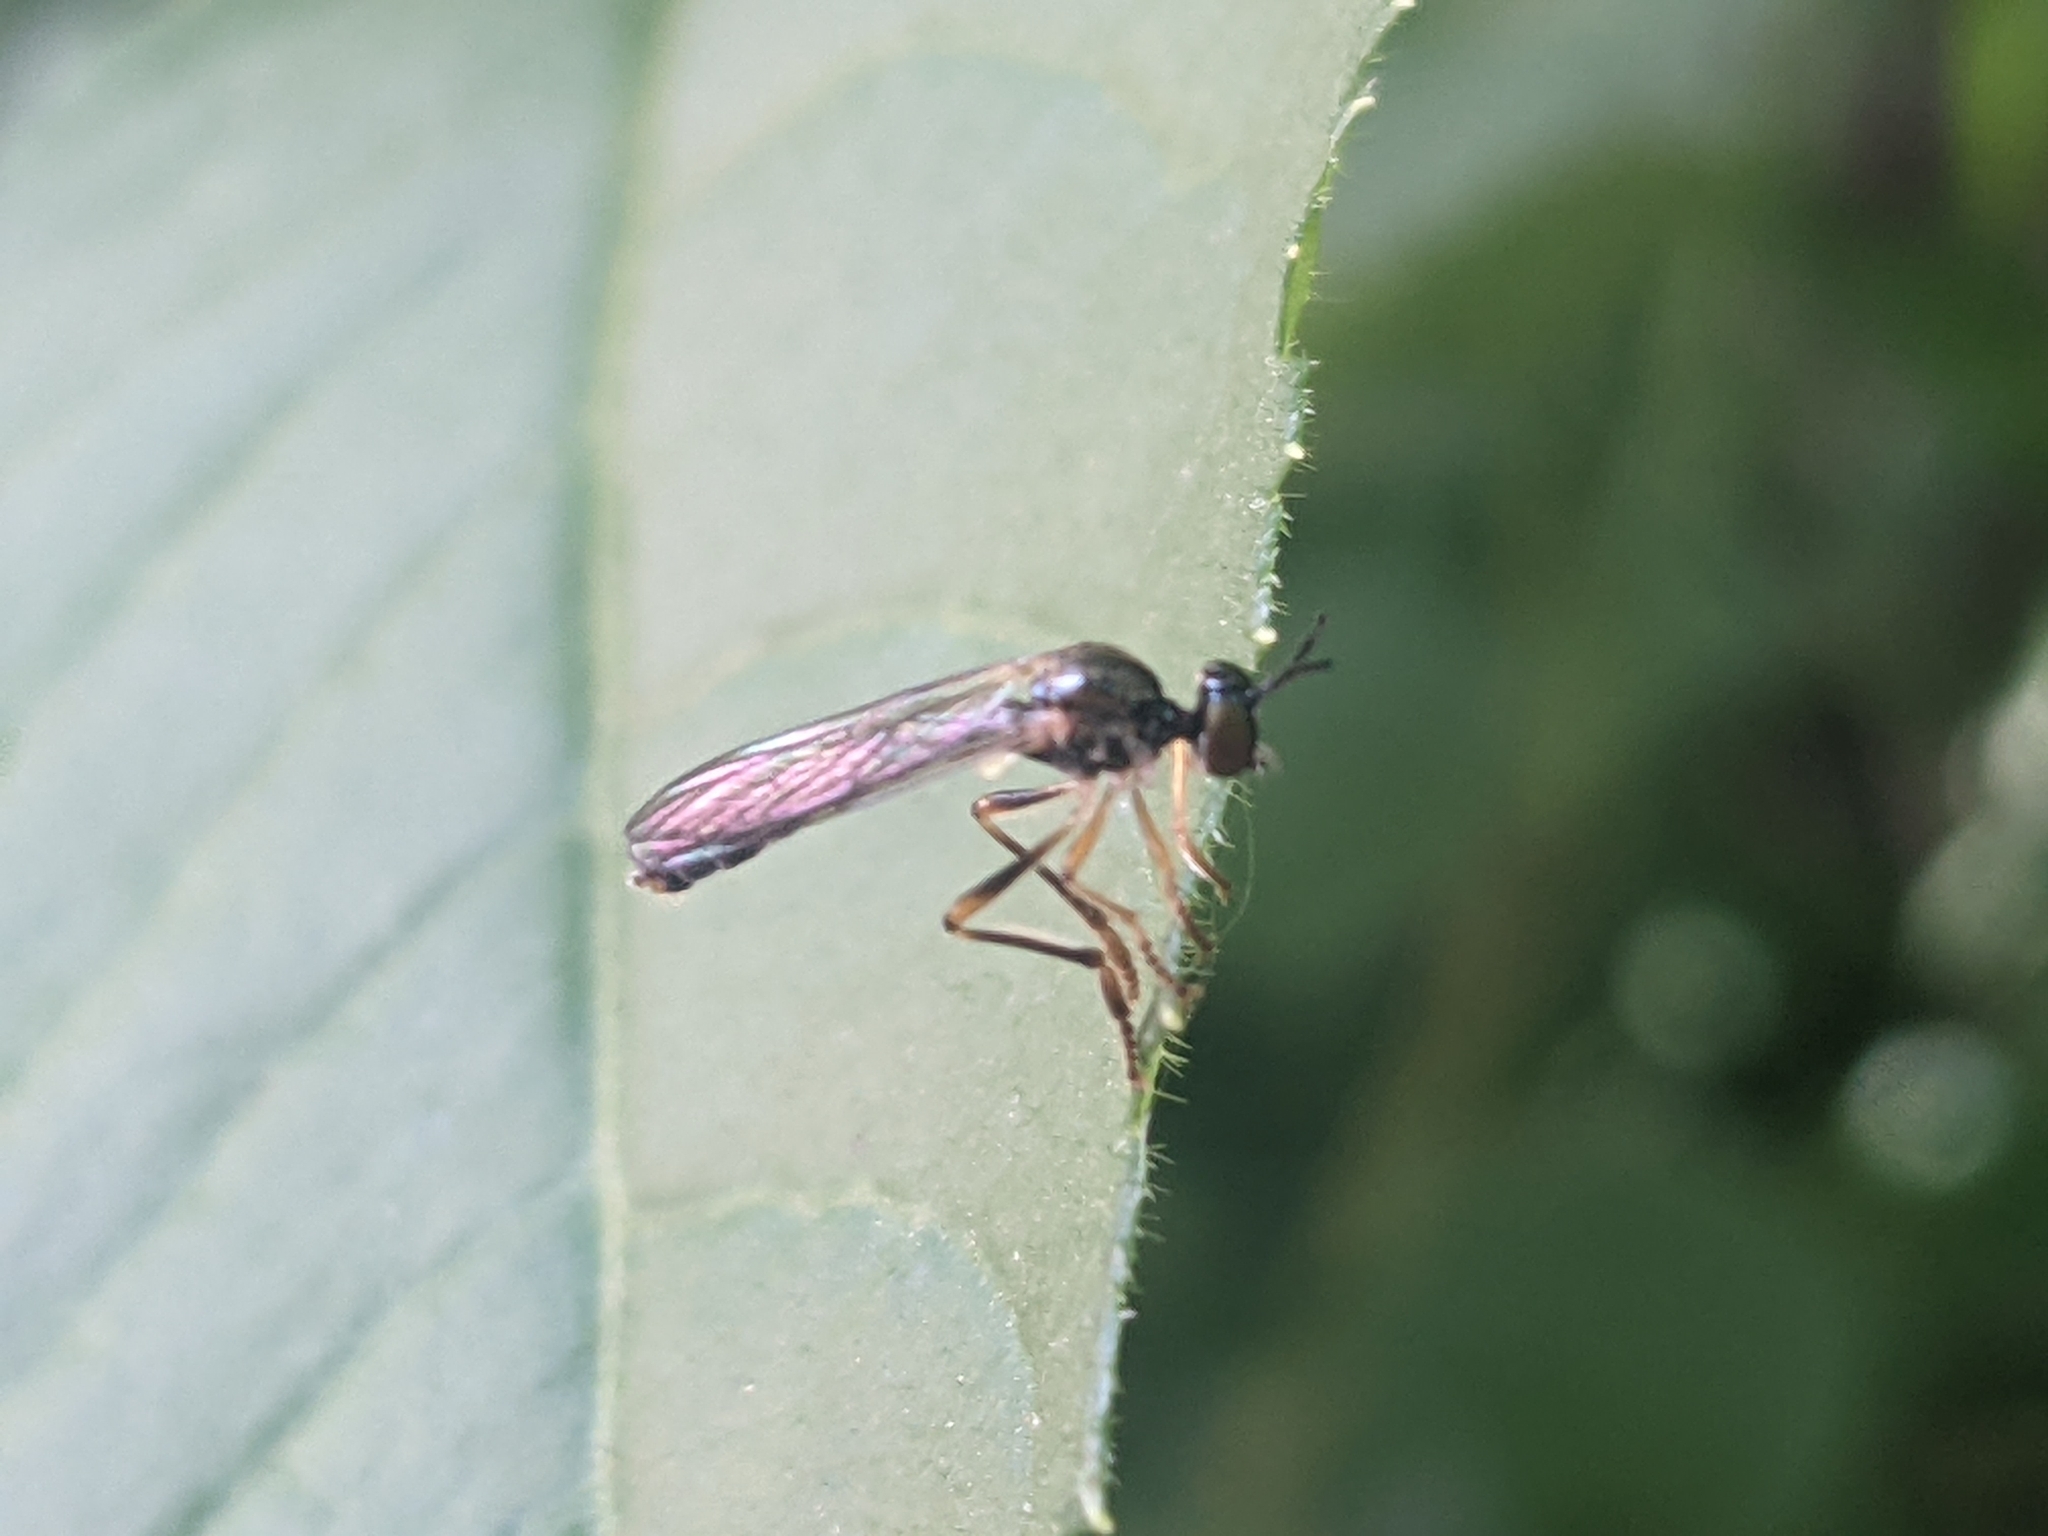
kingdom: Animalia
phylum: Arthropoda
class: Insecta
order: Diptera
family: Asilidae
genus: Dioctria
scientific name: Dioctria linearis
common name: Small yellow-legged robberfly
